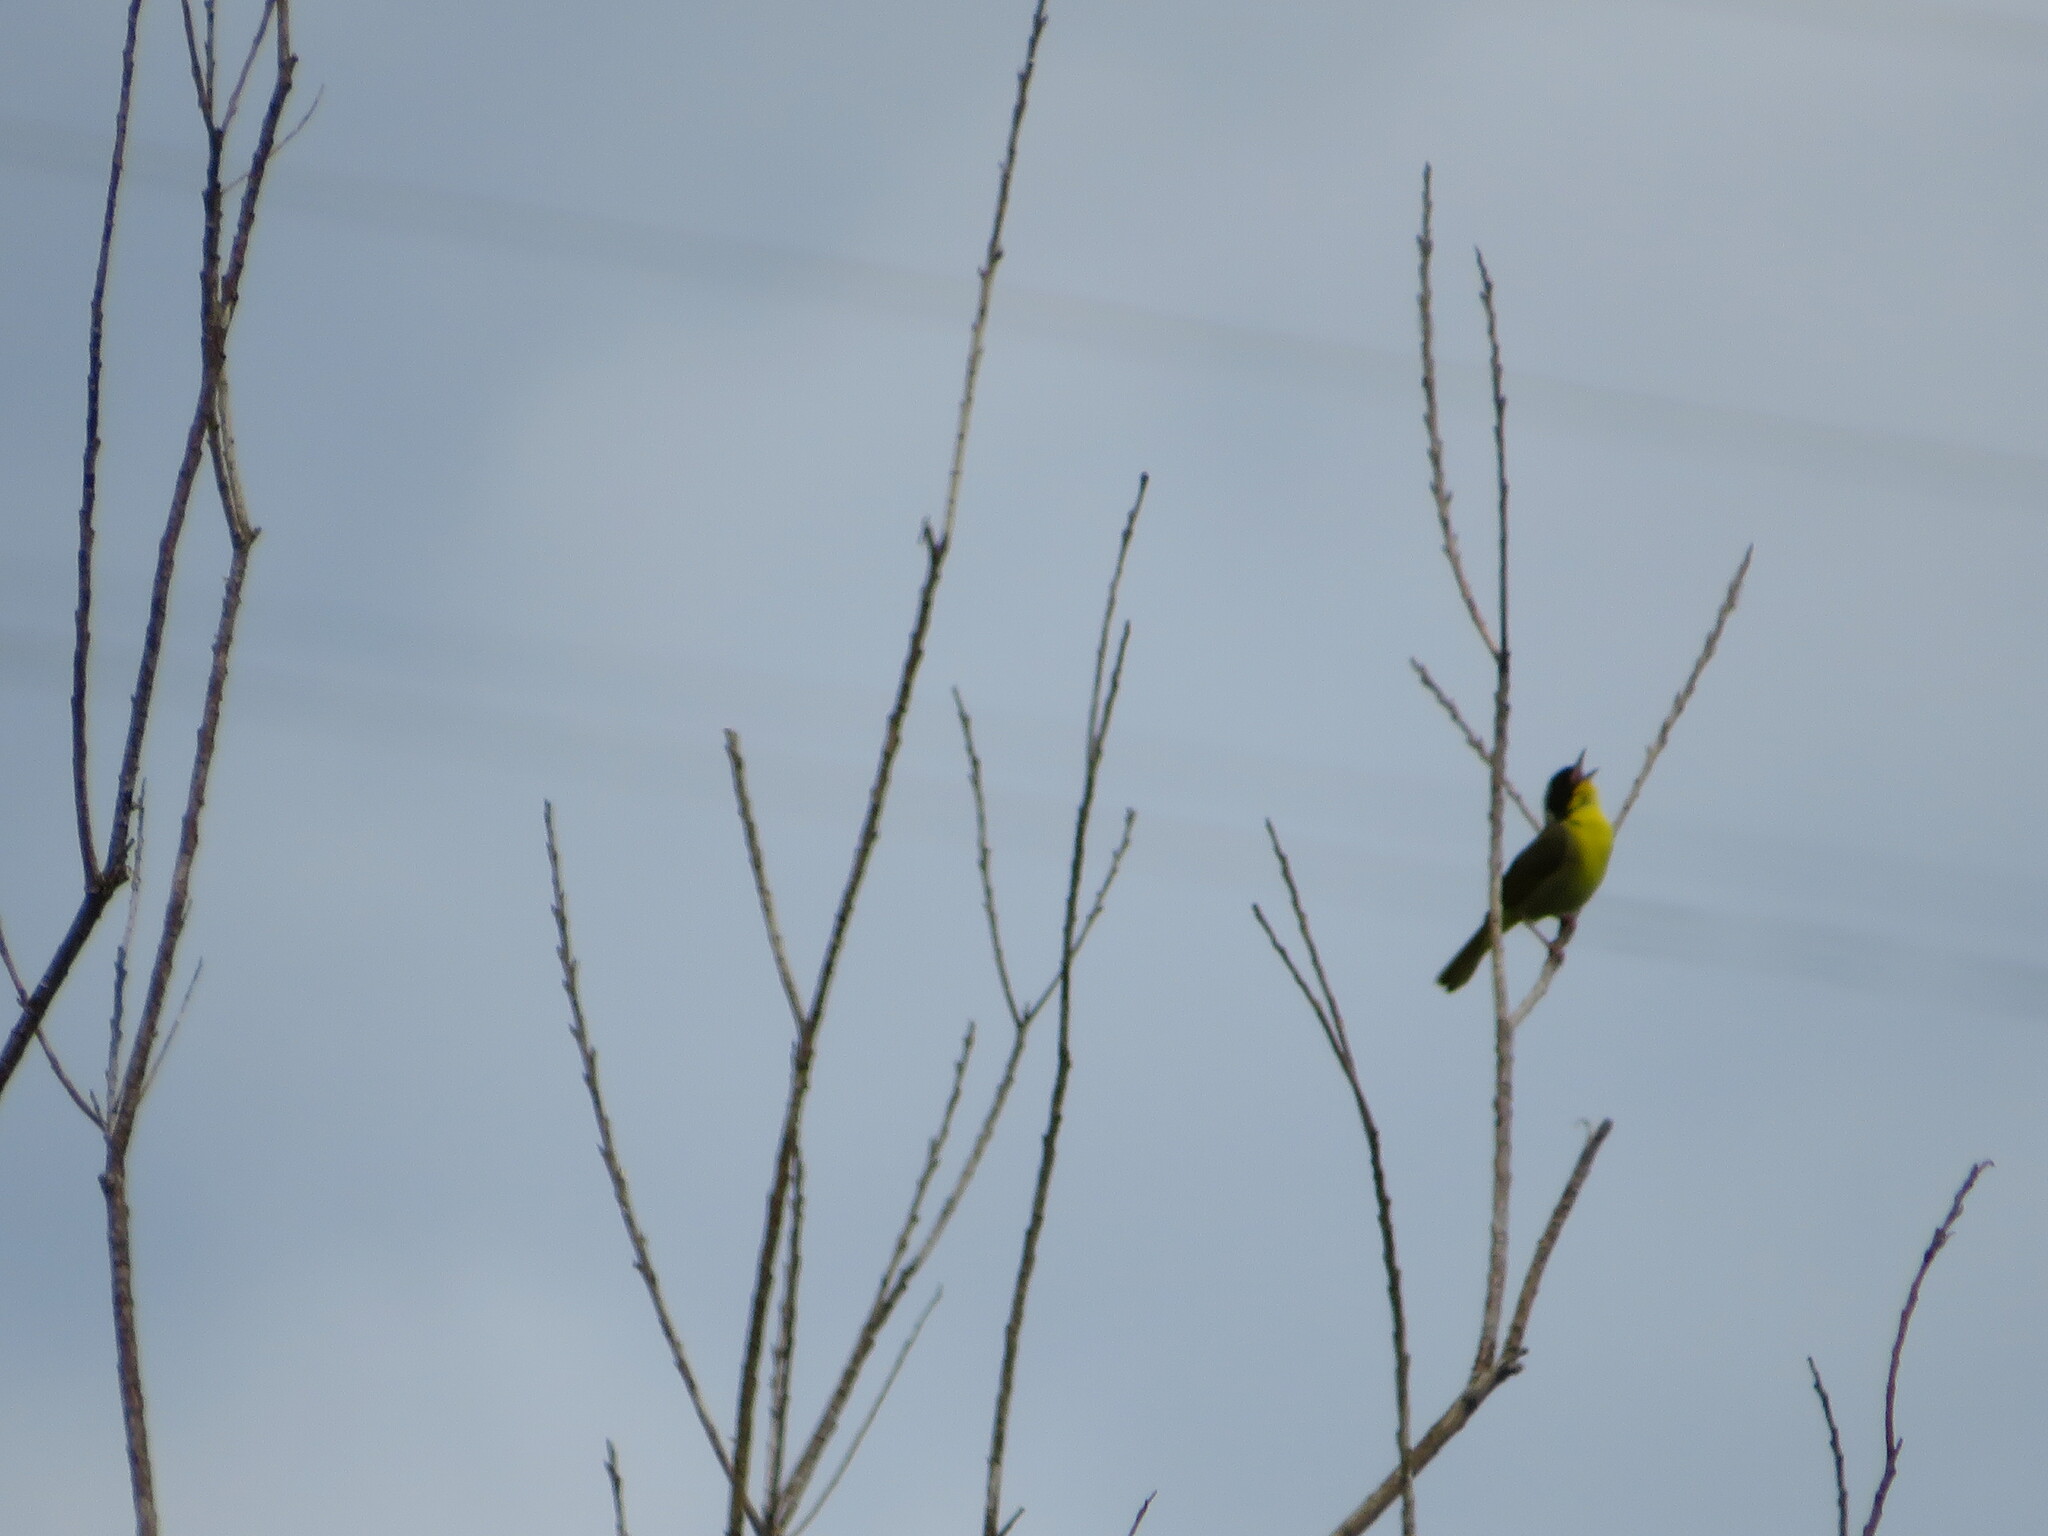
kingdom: Animalia
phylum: Chordata
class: Aves
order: Passeriformes
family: Parulidae
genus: Geothlypis
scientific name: Geothlypis trichas
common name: Common yellowthroat
